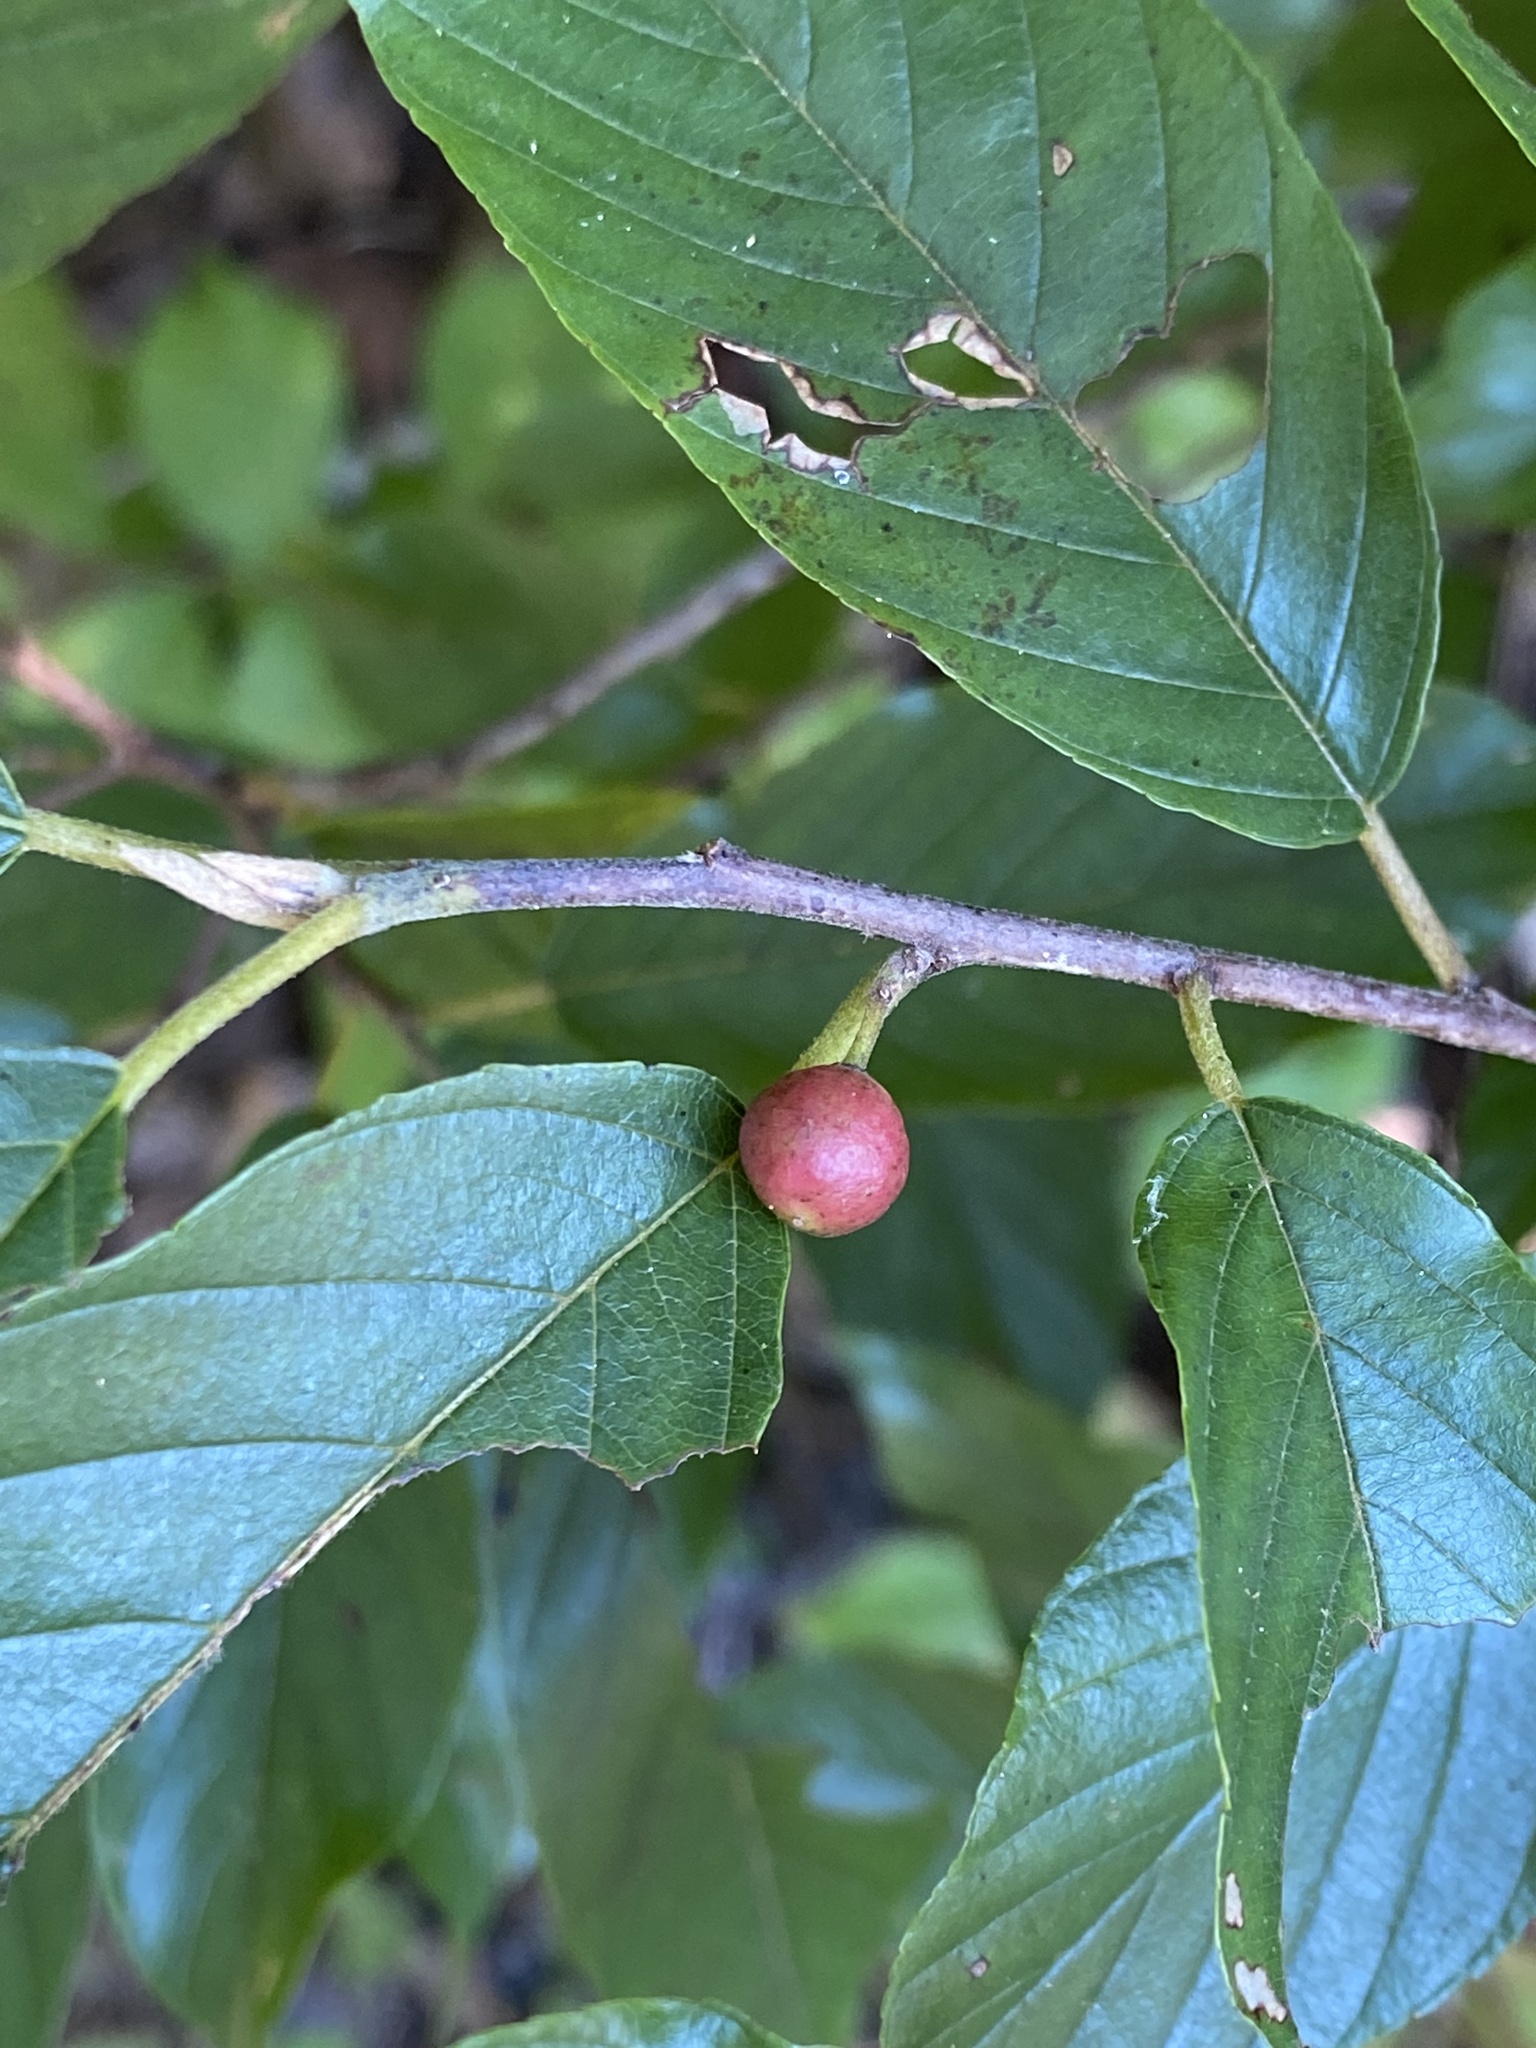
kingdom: Plantae
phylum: Tracheophyta
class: Magnoliopsida
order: Rosales
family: Rhamnaceae
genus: Frangula
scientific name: Frangula caroliniana
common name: Carolina buckthorn
